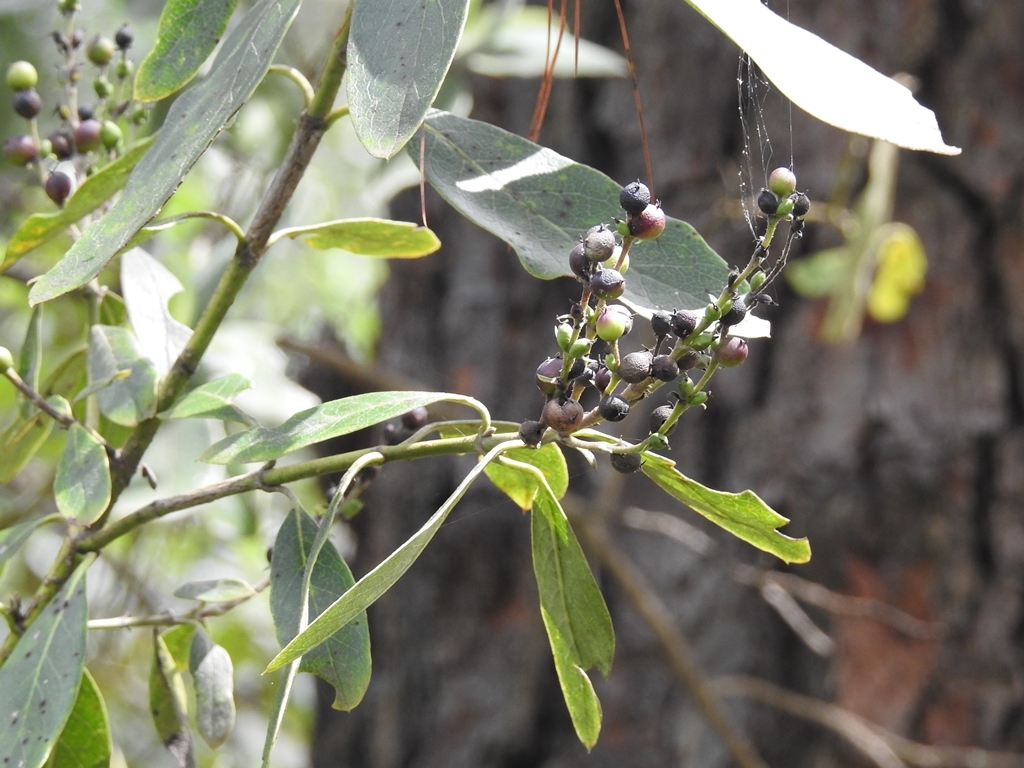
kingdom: Plantae
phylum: Tracheophyta
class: Magnoliopsida
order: Garryales
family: Garryaceae
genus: Garrya
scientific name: Garrya laurifolia
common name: Cuachichic
